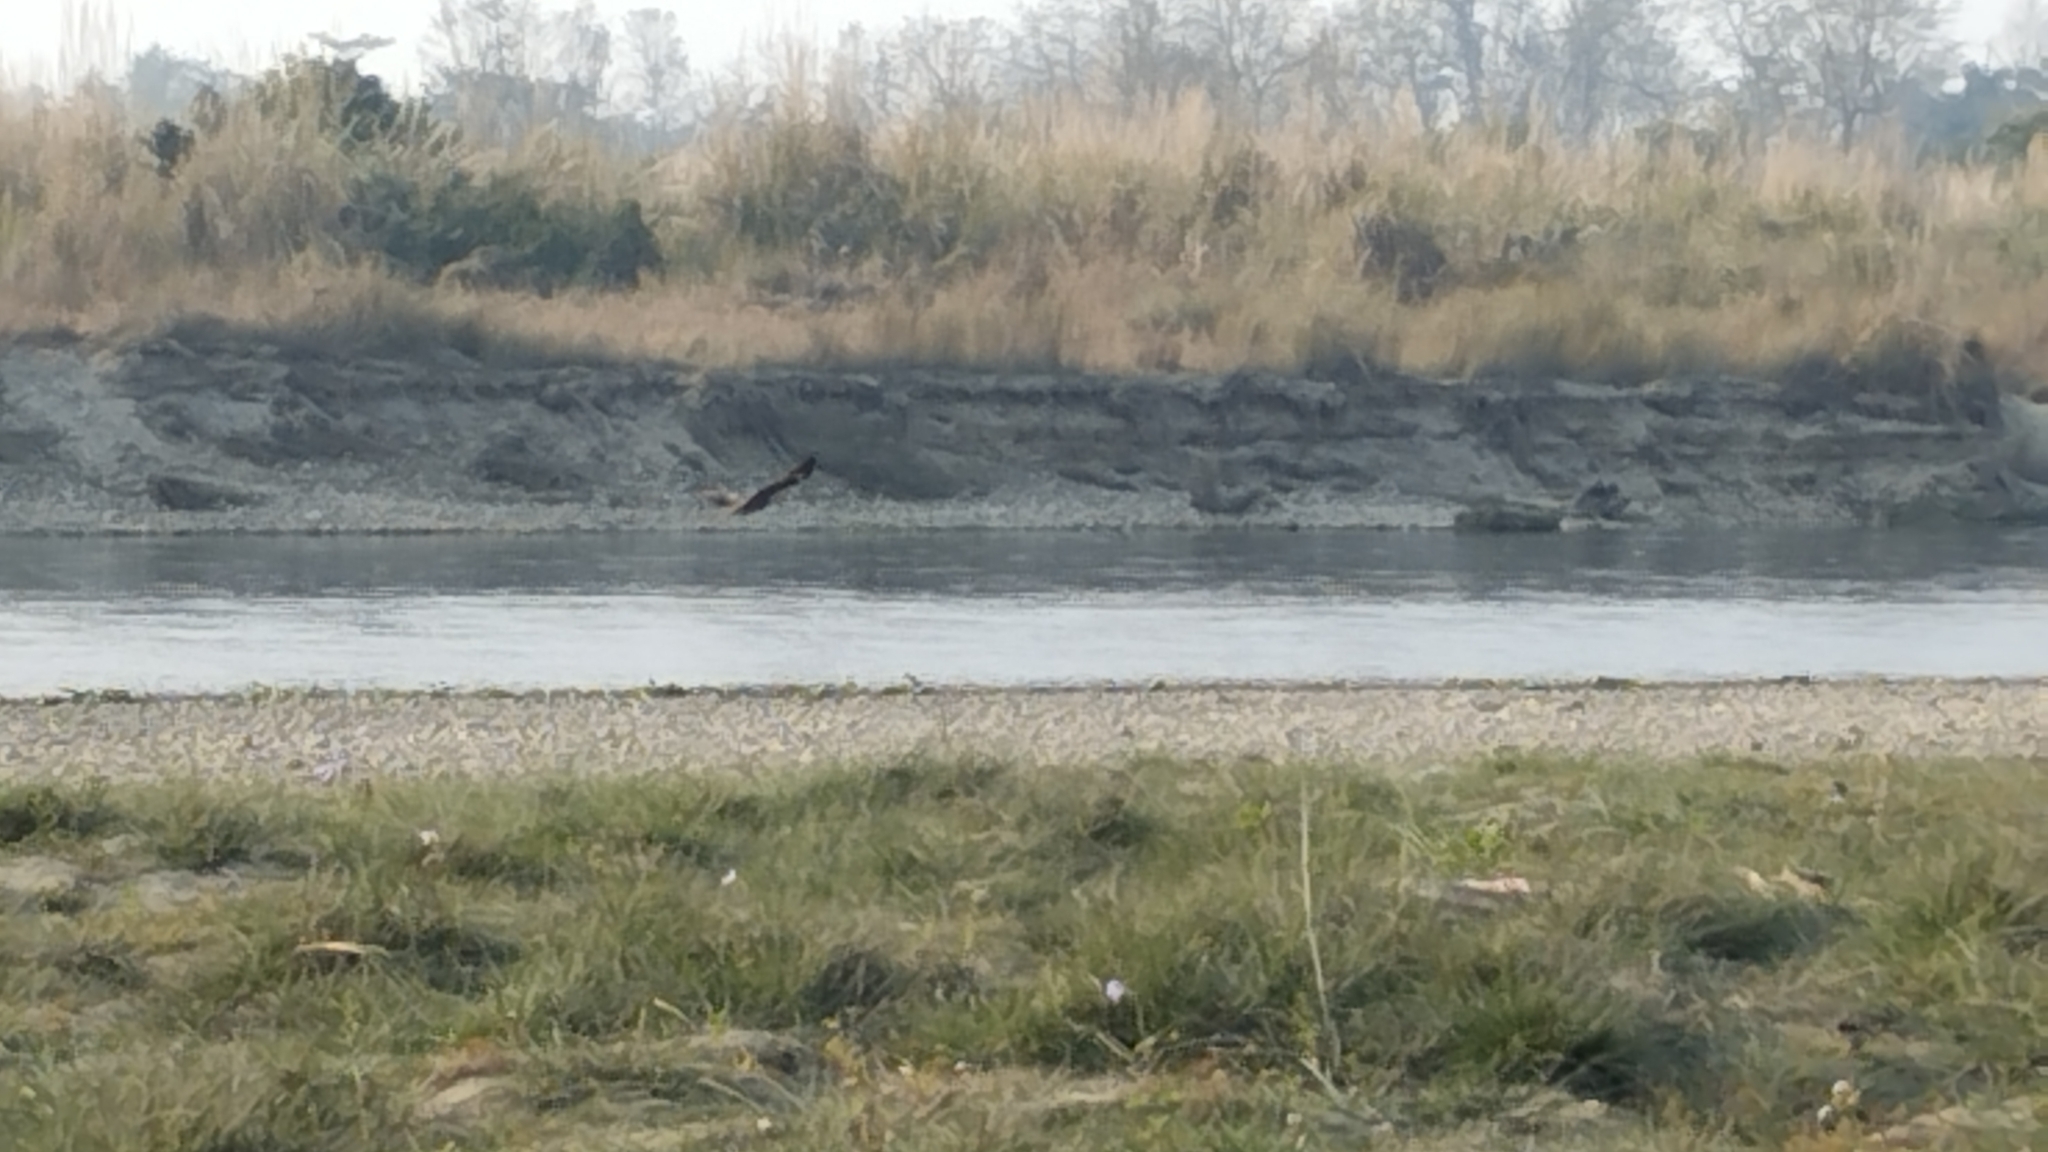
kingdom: Animalia
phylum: Chordata
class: Aves
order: Accipitriformes
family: Accipitridae
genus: Milvus
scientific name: Milvus migrans
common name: Black kite
